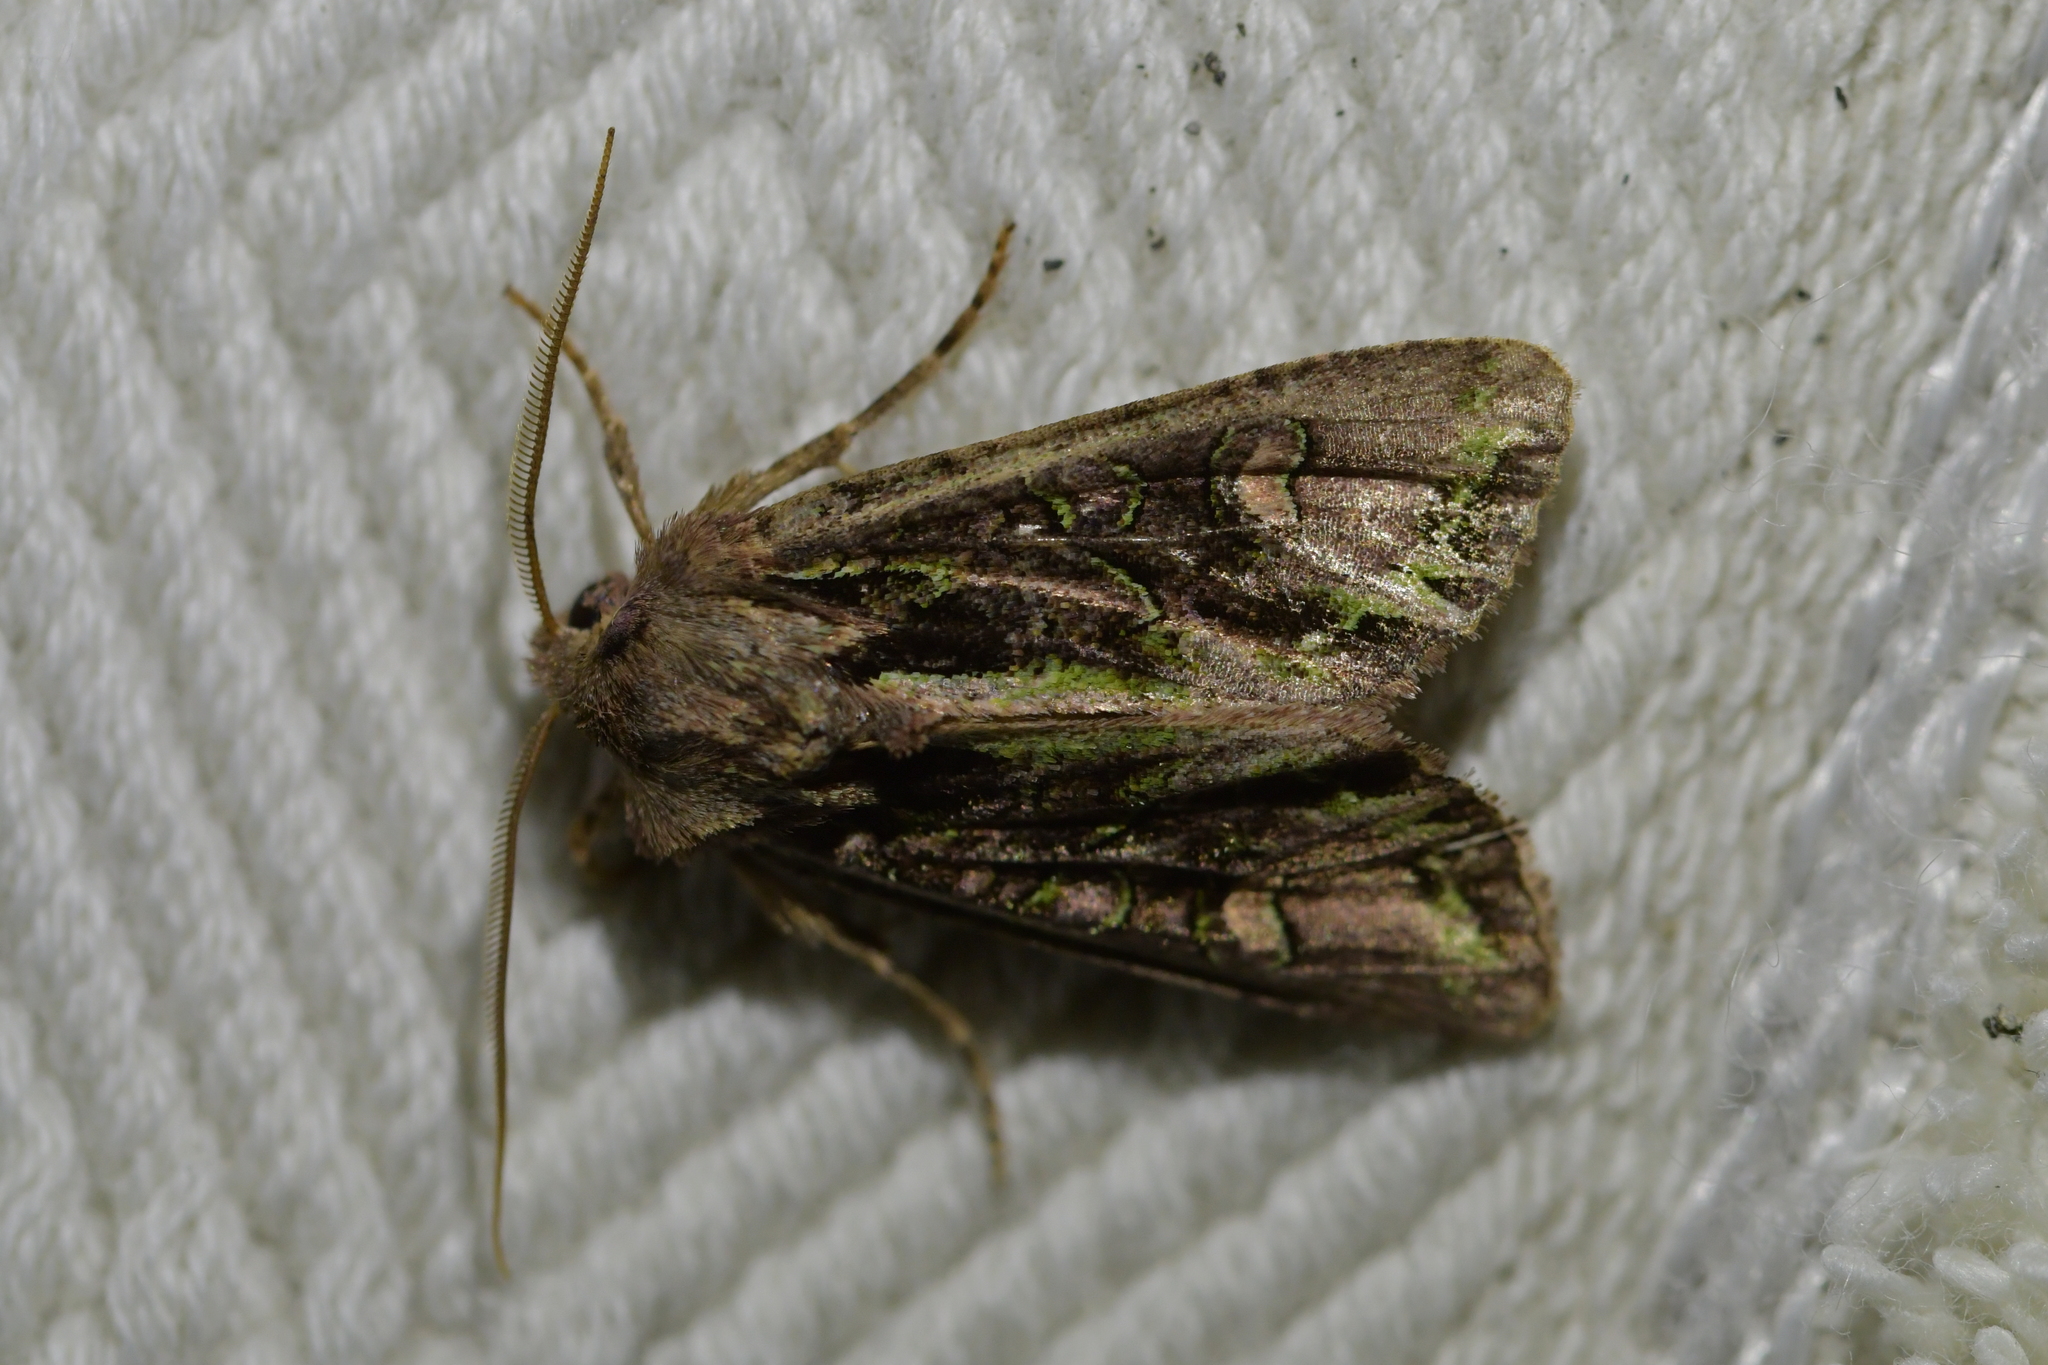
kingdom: Animalia
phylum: Arthropoda
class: Insecta
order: Lepidoptera
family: Noctuidae
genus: Ichneutica
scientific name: Ichneutica insignis
